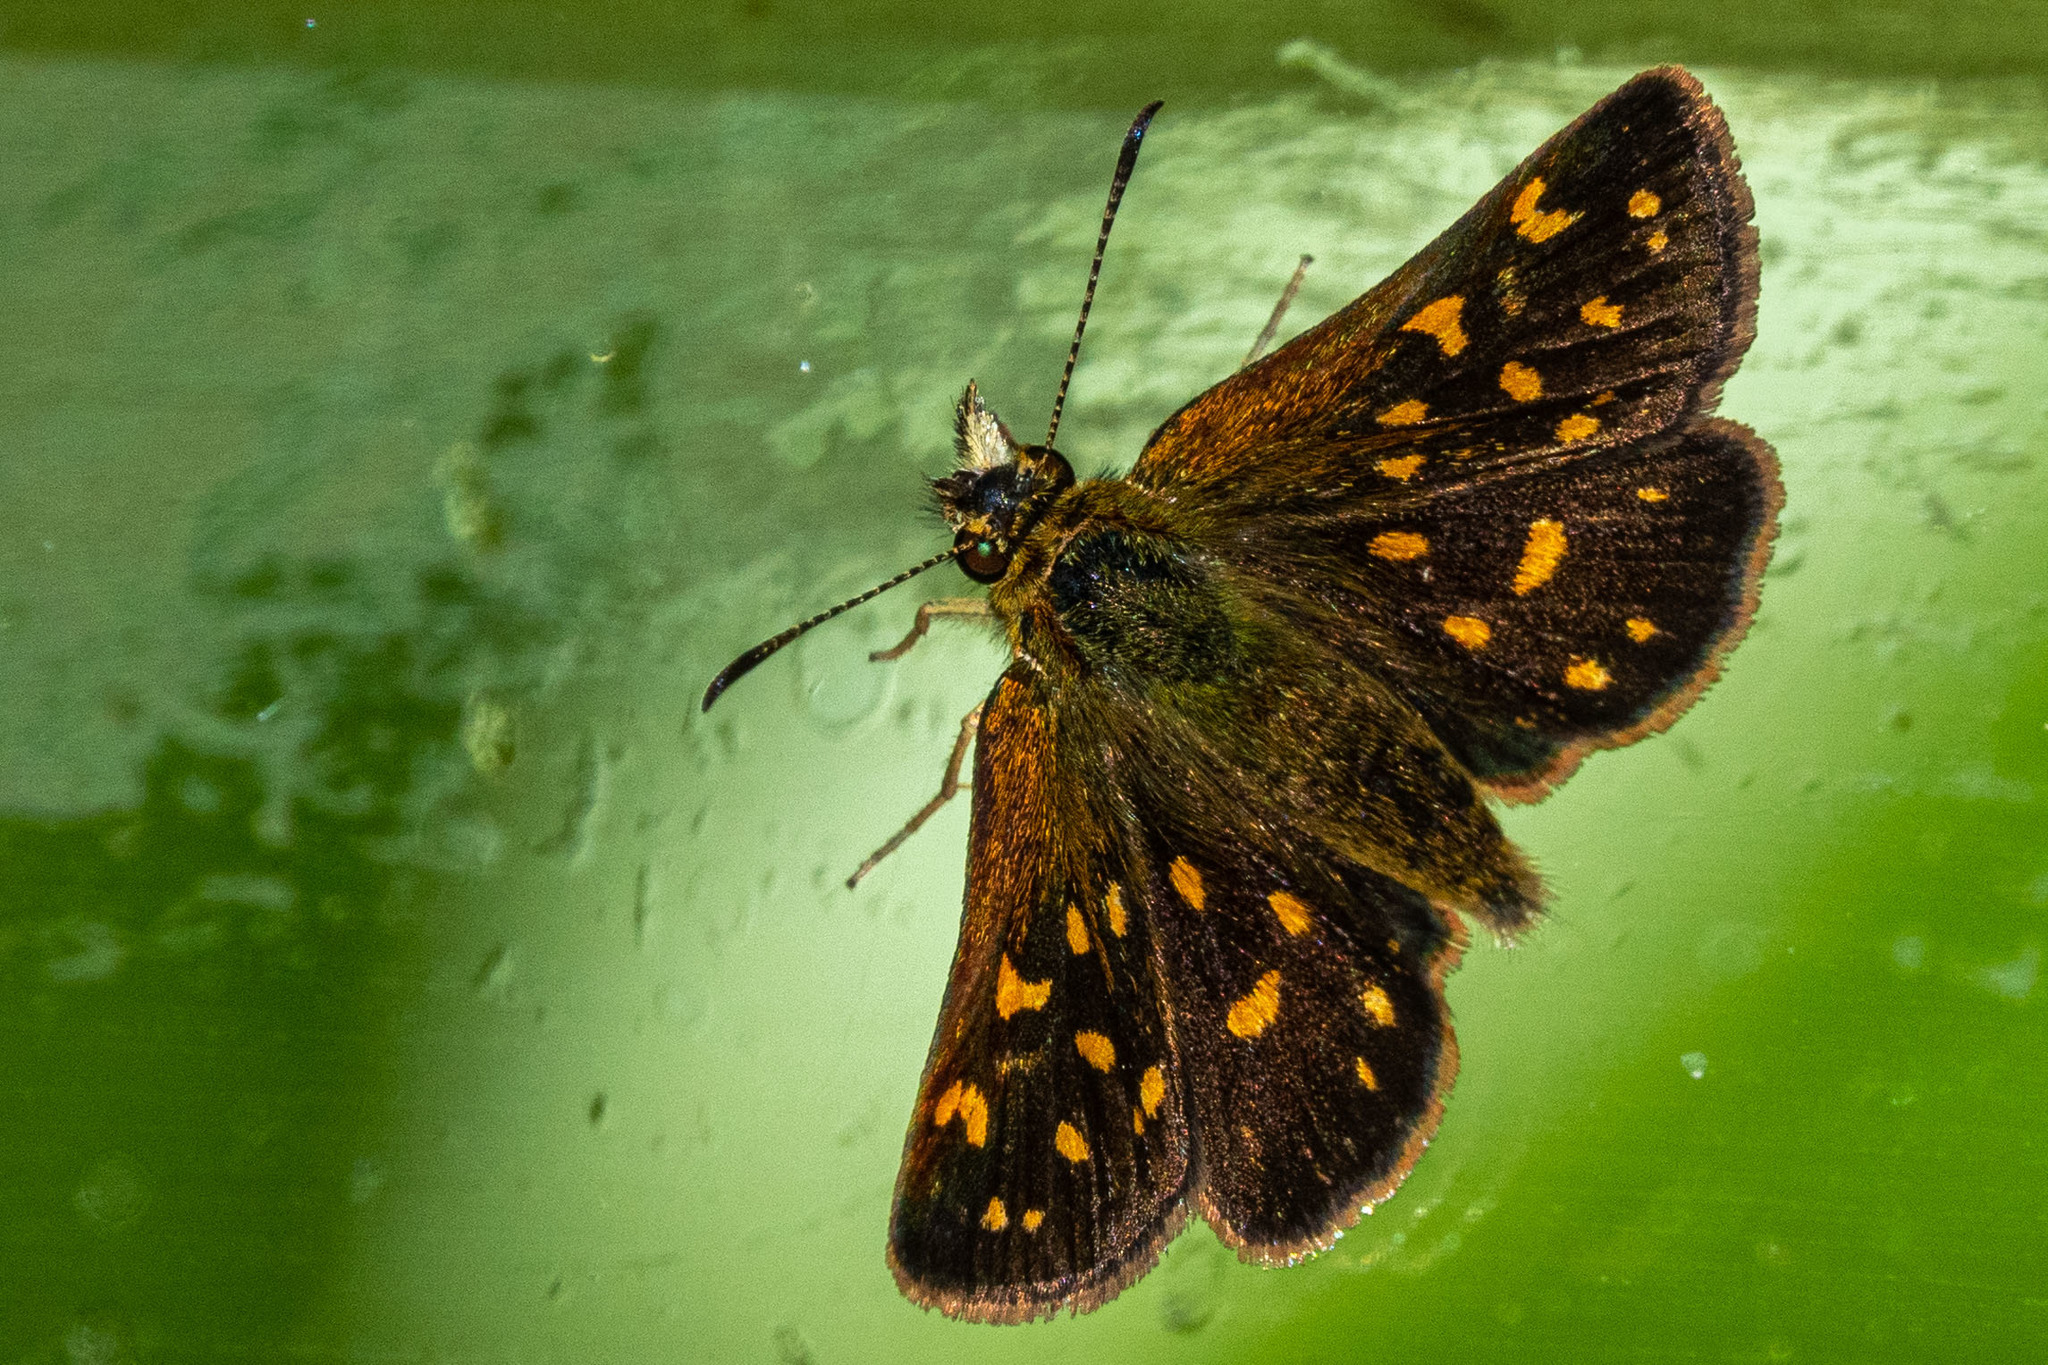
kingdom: Animalia
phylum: Arthropoda
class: Insecta
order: Lepidoptera
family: Hesperiidae
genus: Butleria
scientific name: Butleria quilla
